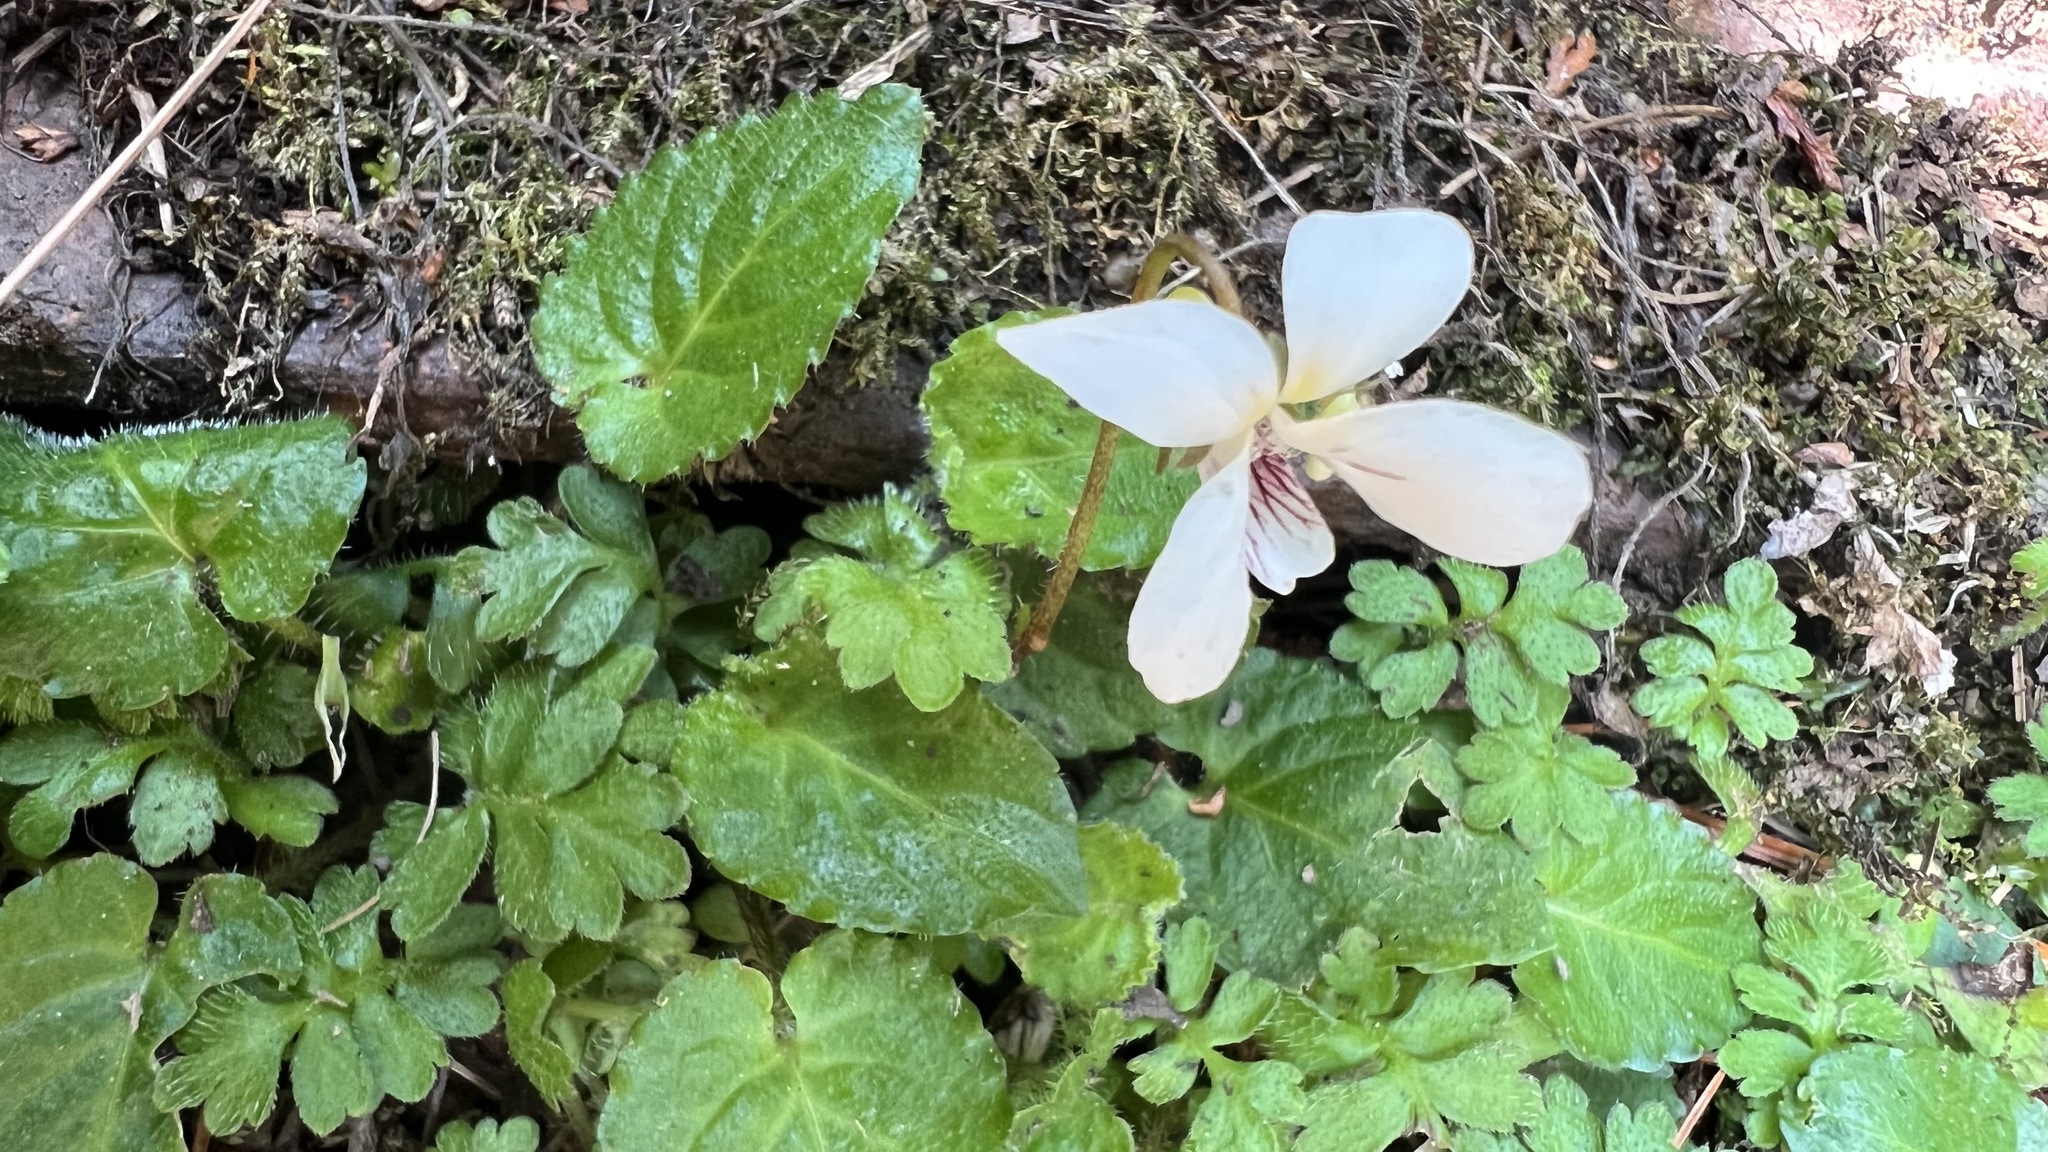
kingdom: Plantae
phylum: Tracheophyta
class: Magnoliopsida
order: Malpighiales
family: Violaceae
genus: Viola
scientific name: Viola adenothrix
